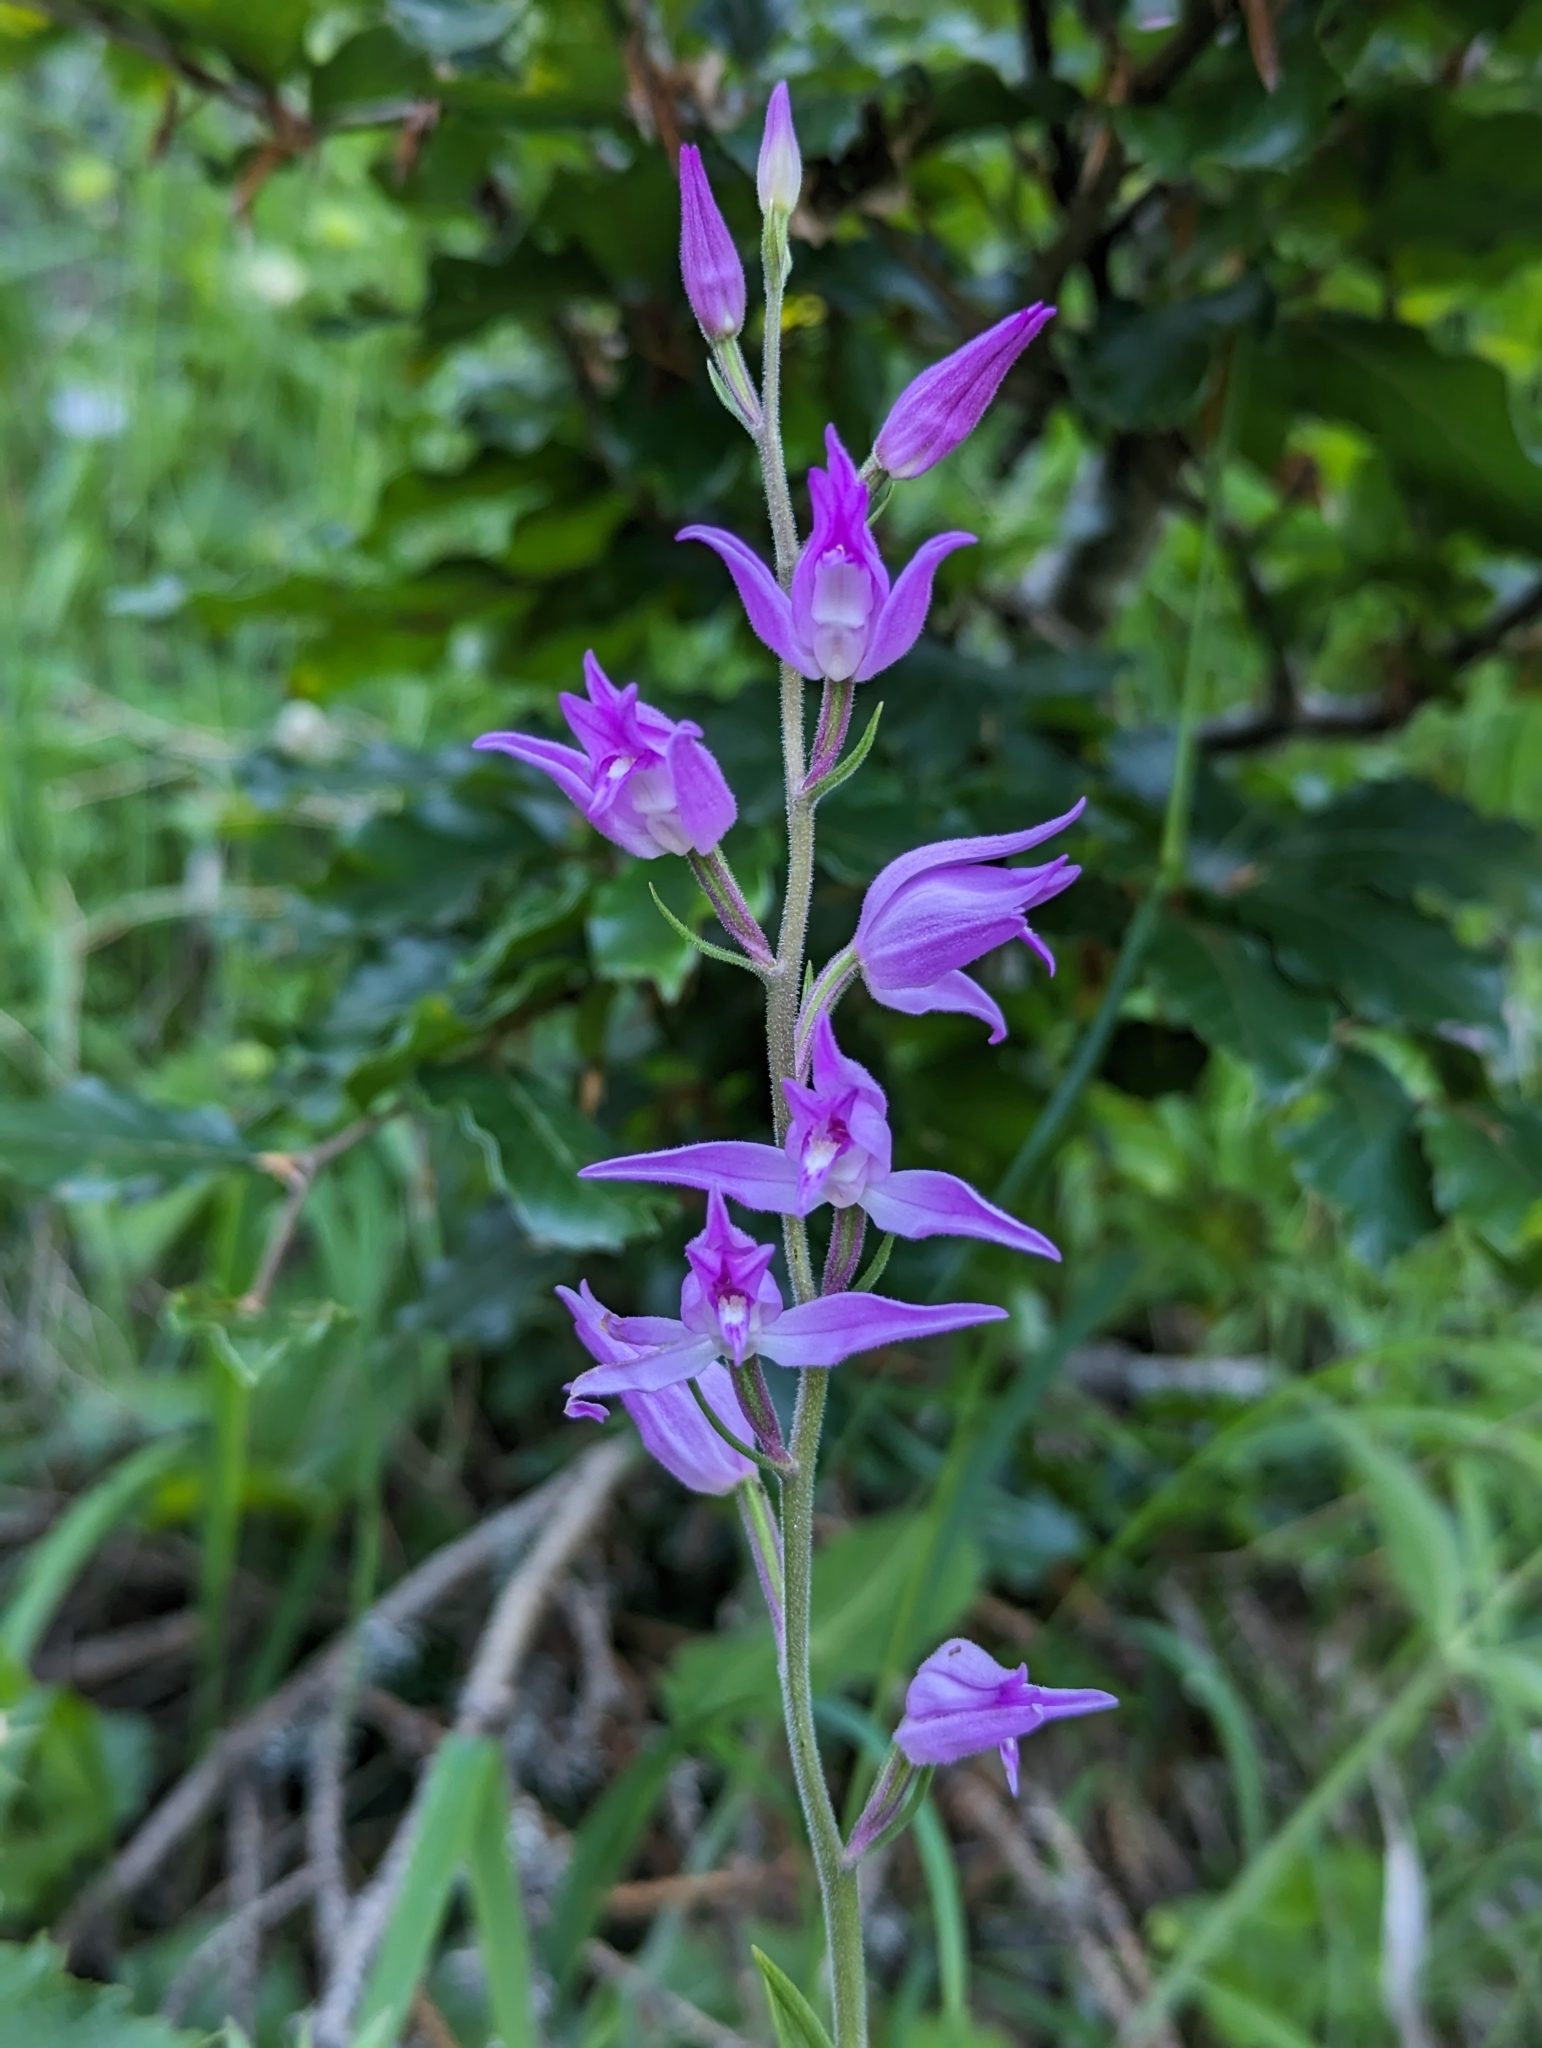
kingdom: Plantae
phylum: Tracheophyta
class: Liliopsida
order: Asparagales
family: Orchidaceae
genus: Cephalanthera
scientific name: Cephalanthera rubra
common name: Red helleborine
